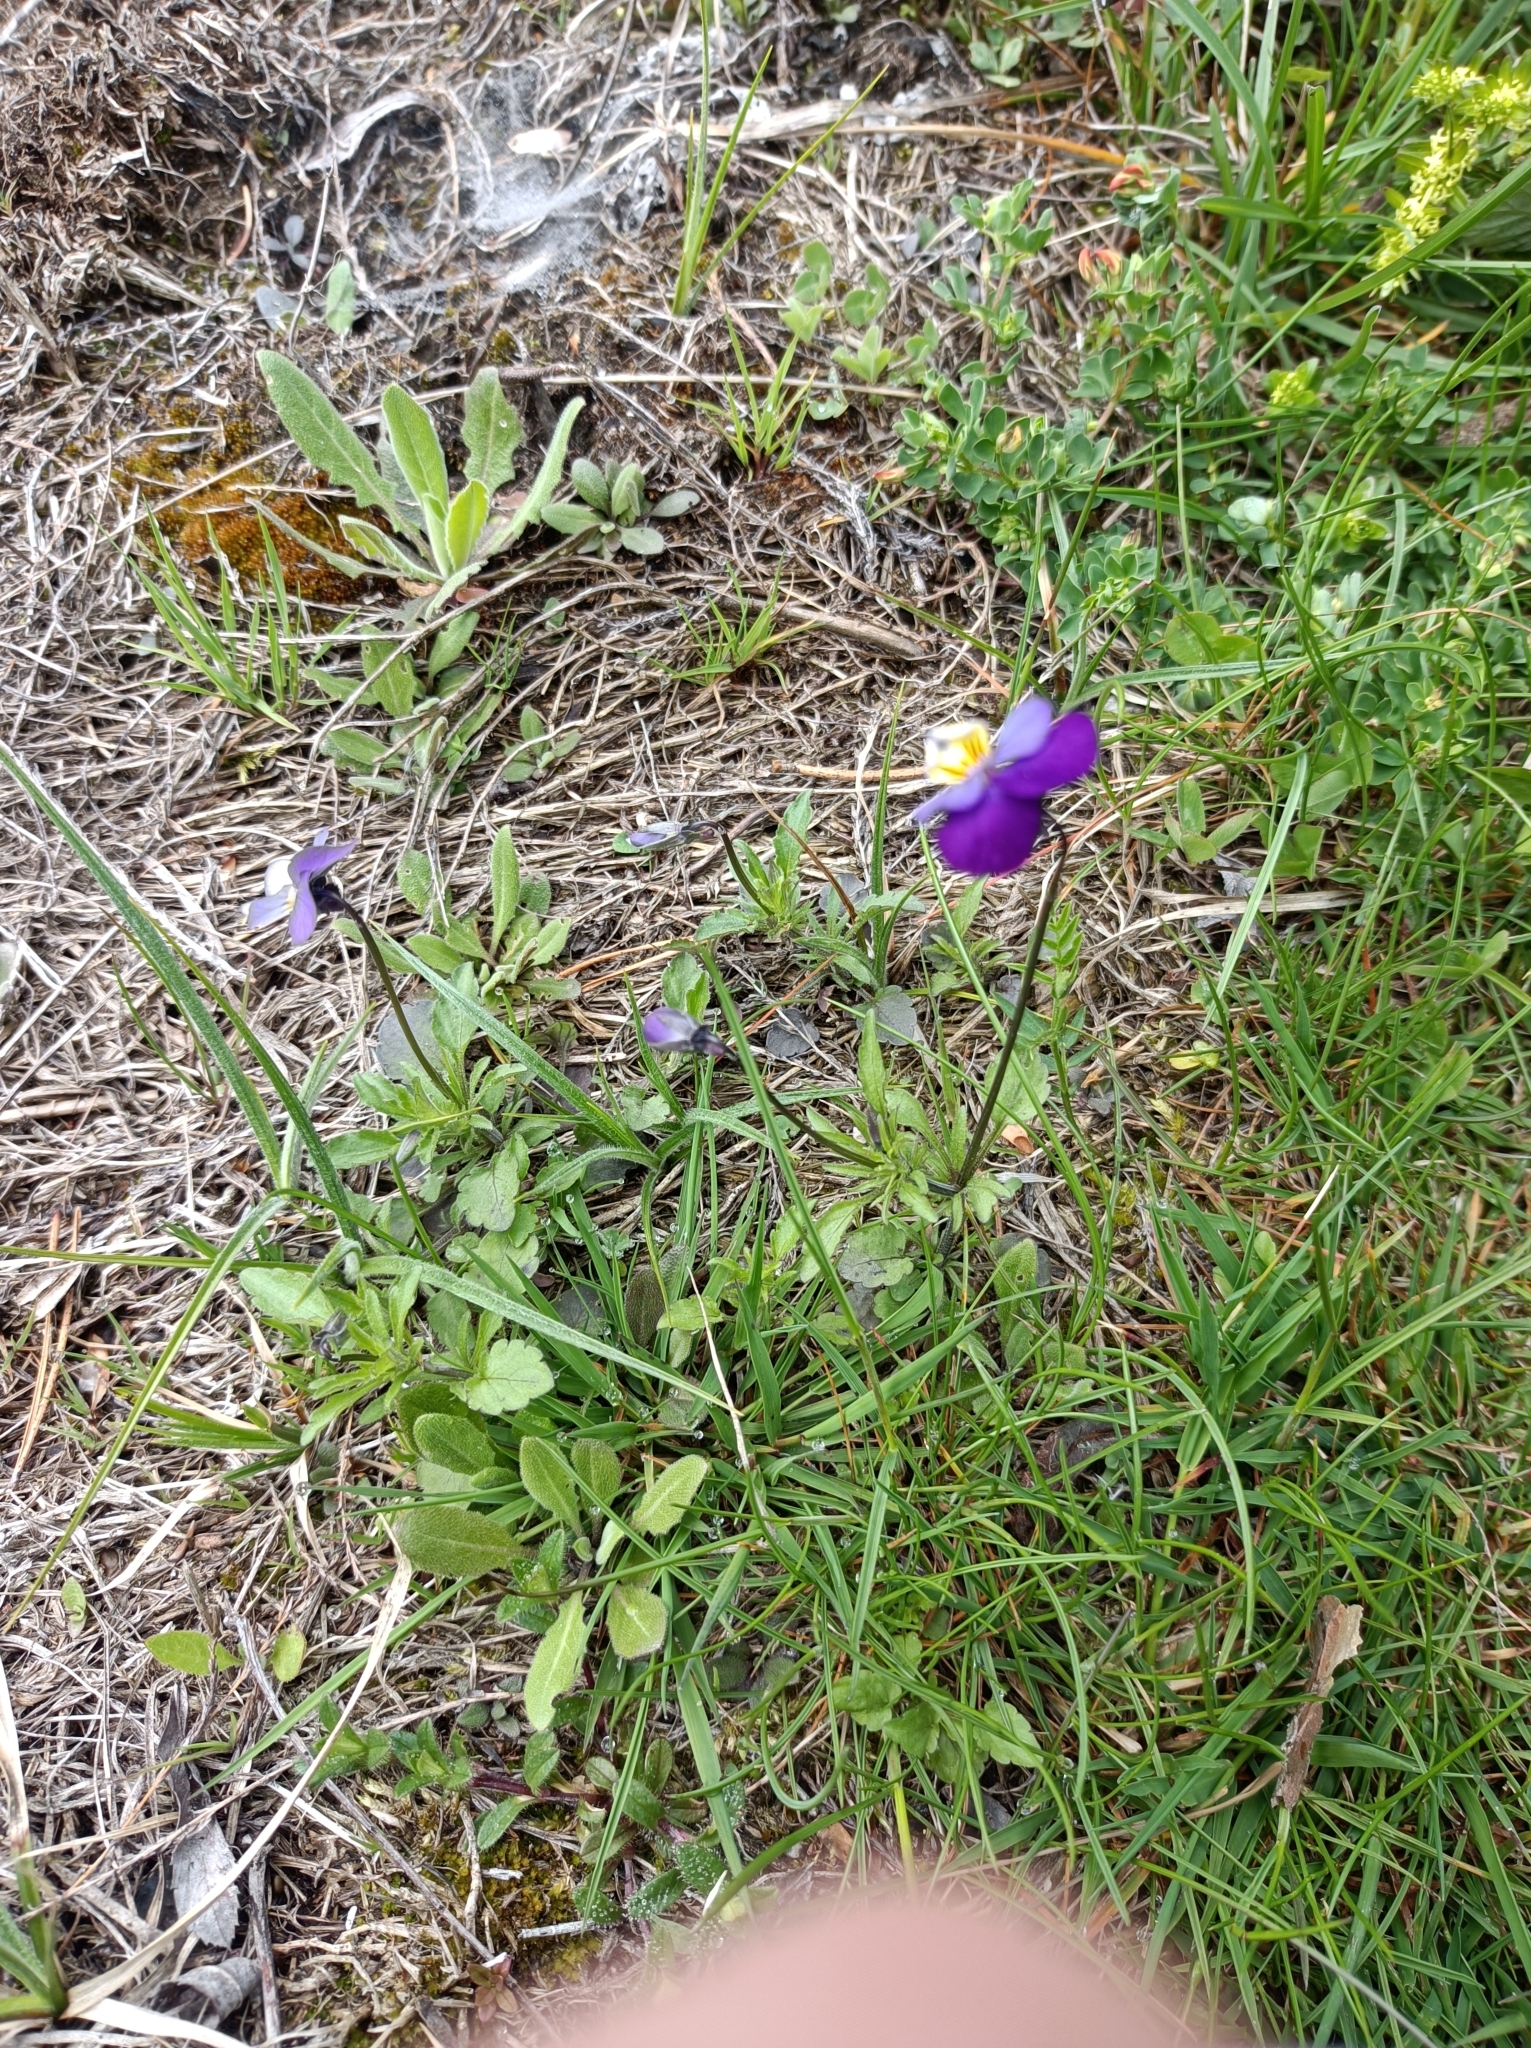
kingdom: Plantae
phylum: Tracheophyta
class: Magnoliopsida
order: Malpighiales
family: Violaceae
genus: Viola
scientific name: Viola tricolor
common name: Pansy
